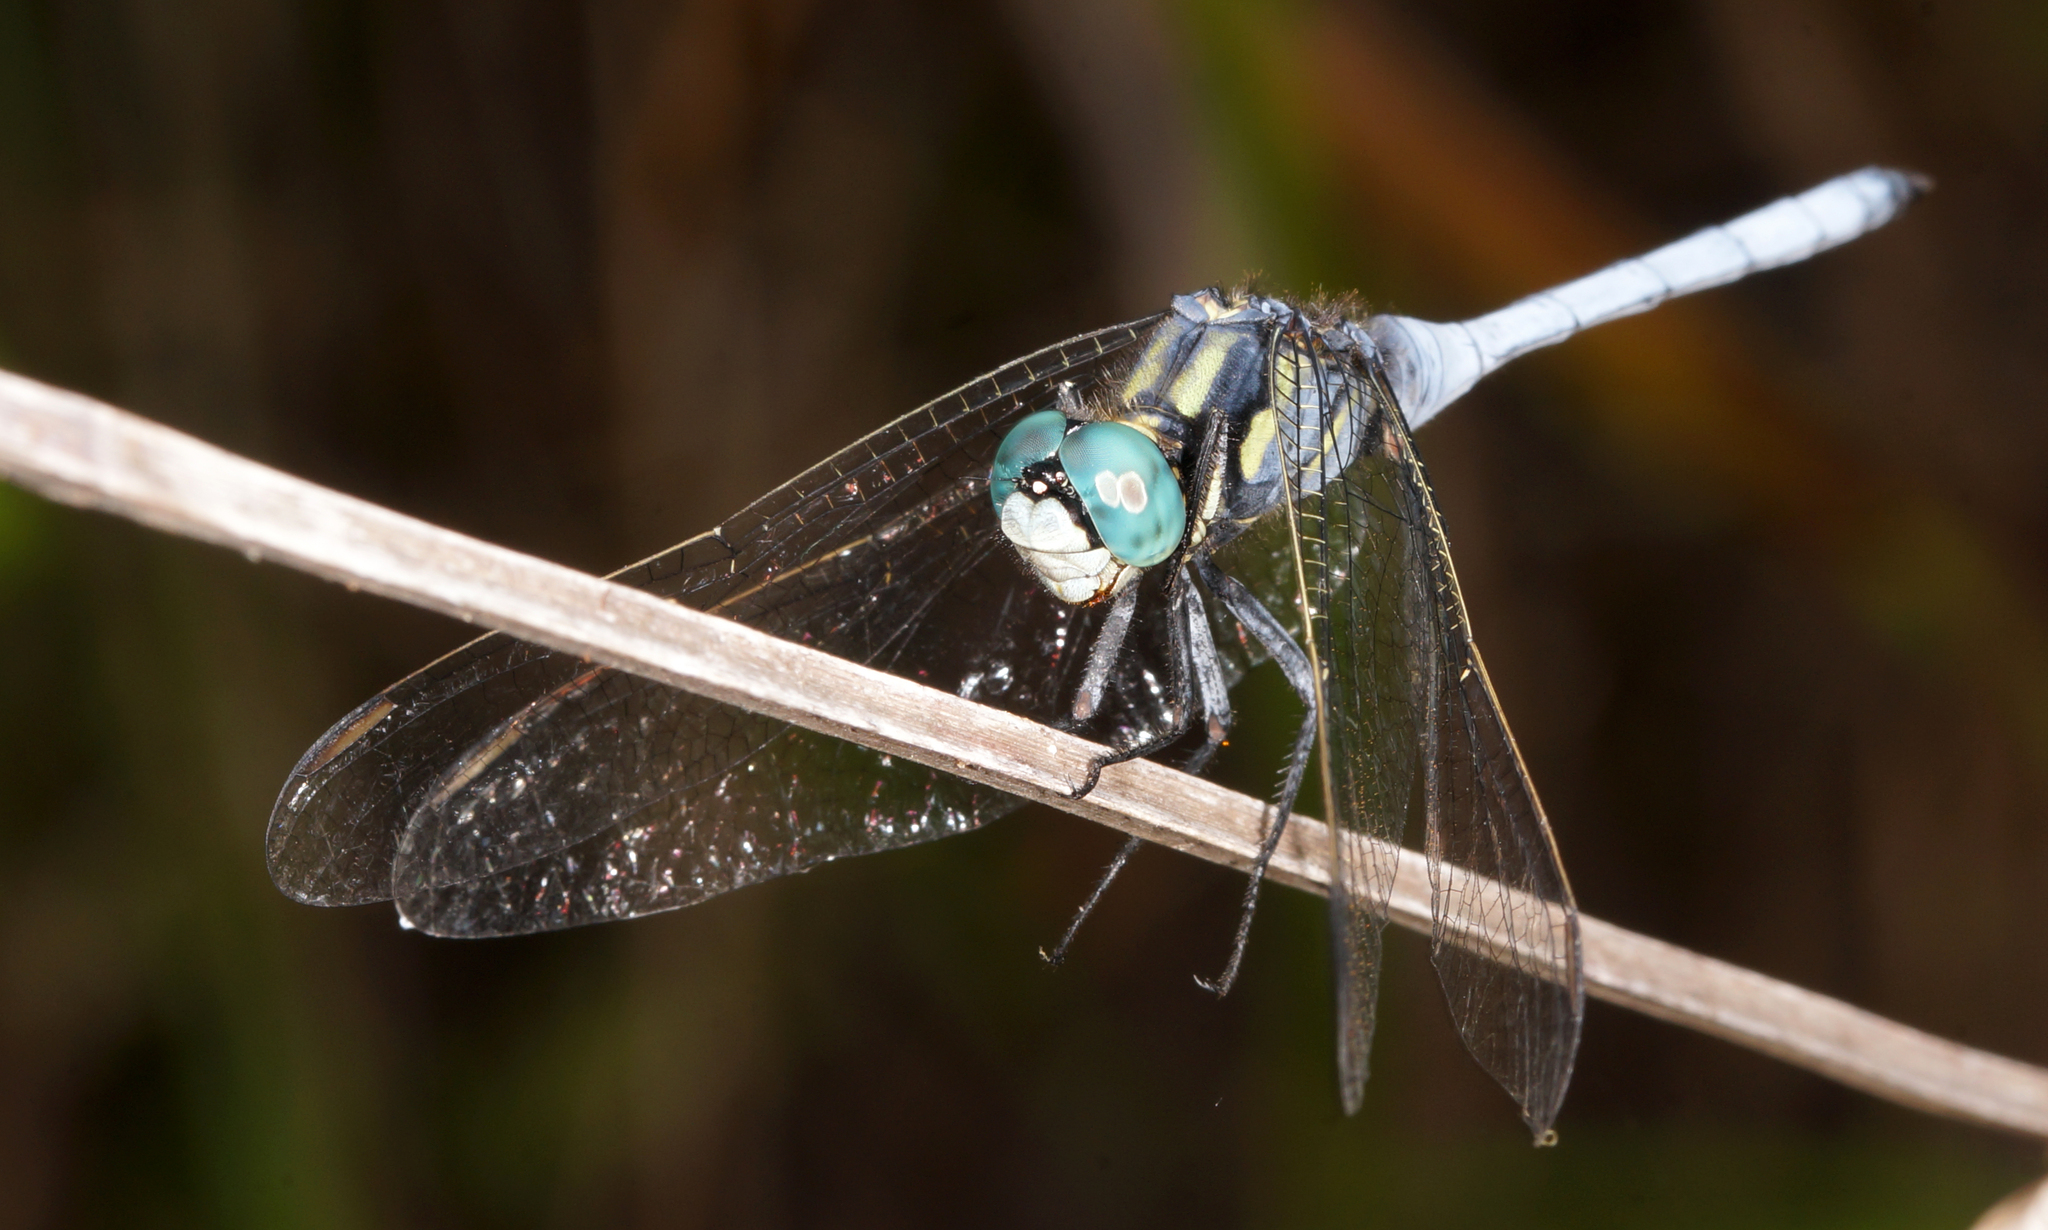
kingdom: Animalia
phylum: Arthropoda
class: Insecta
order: Odonata
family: Libellulidae
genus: Orthetrum
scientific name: Orthetrum luzonicum
